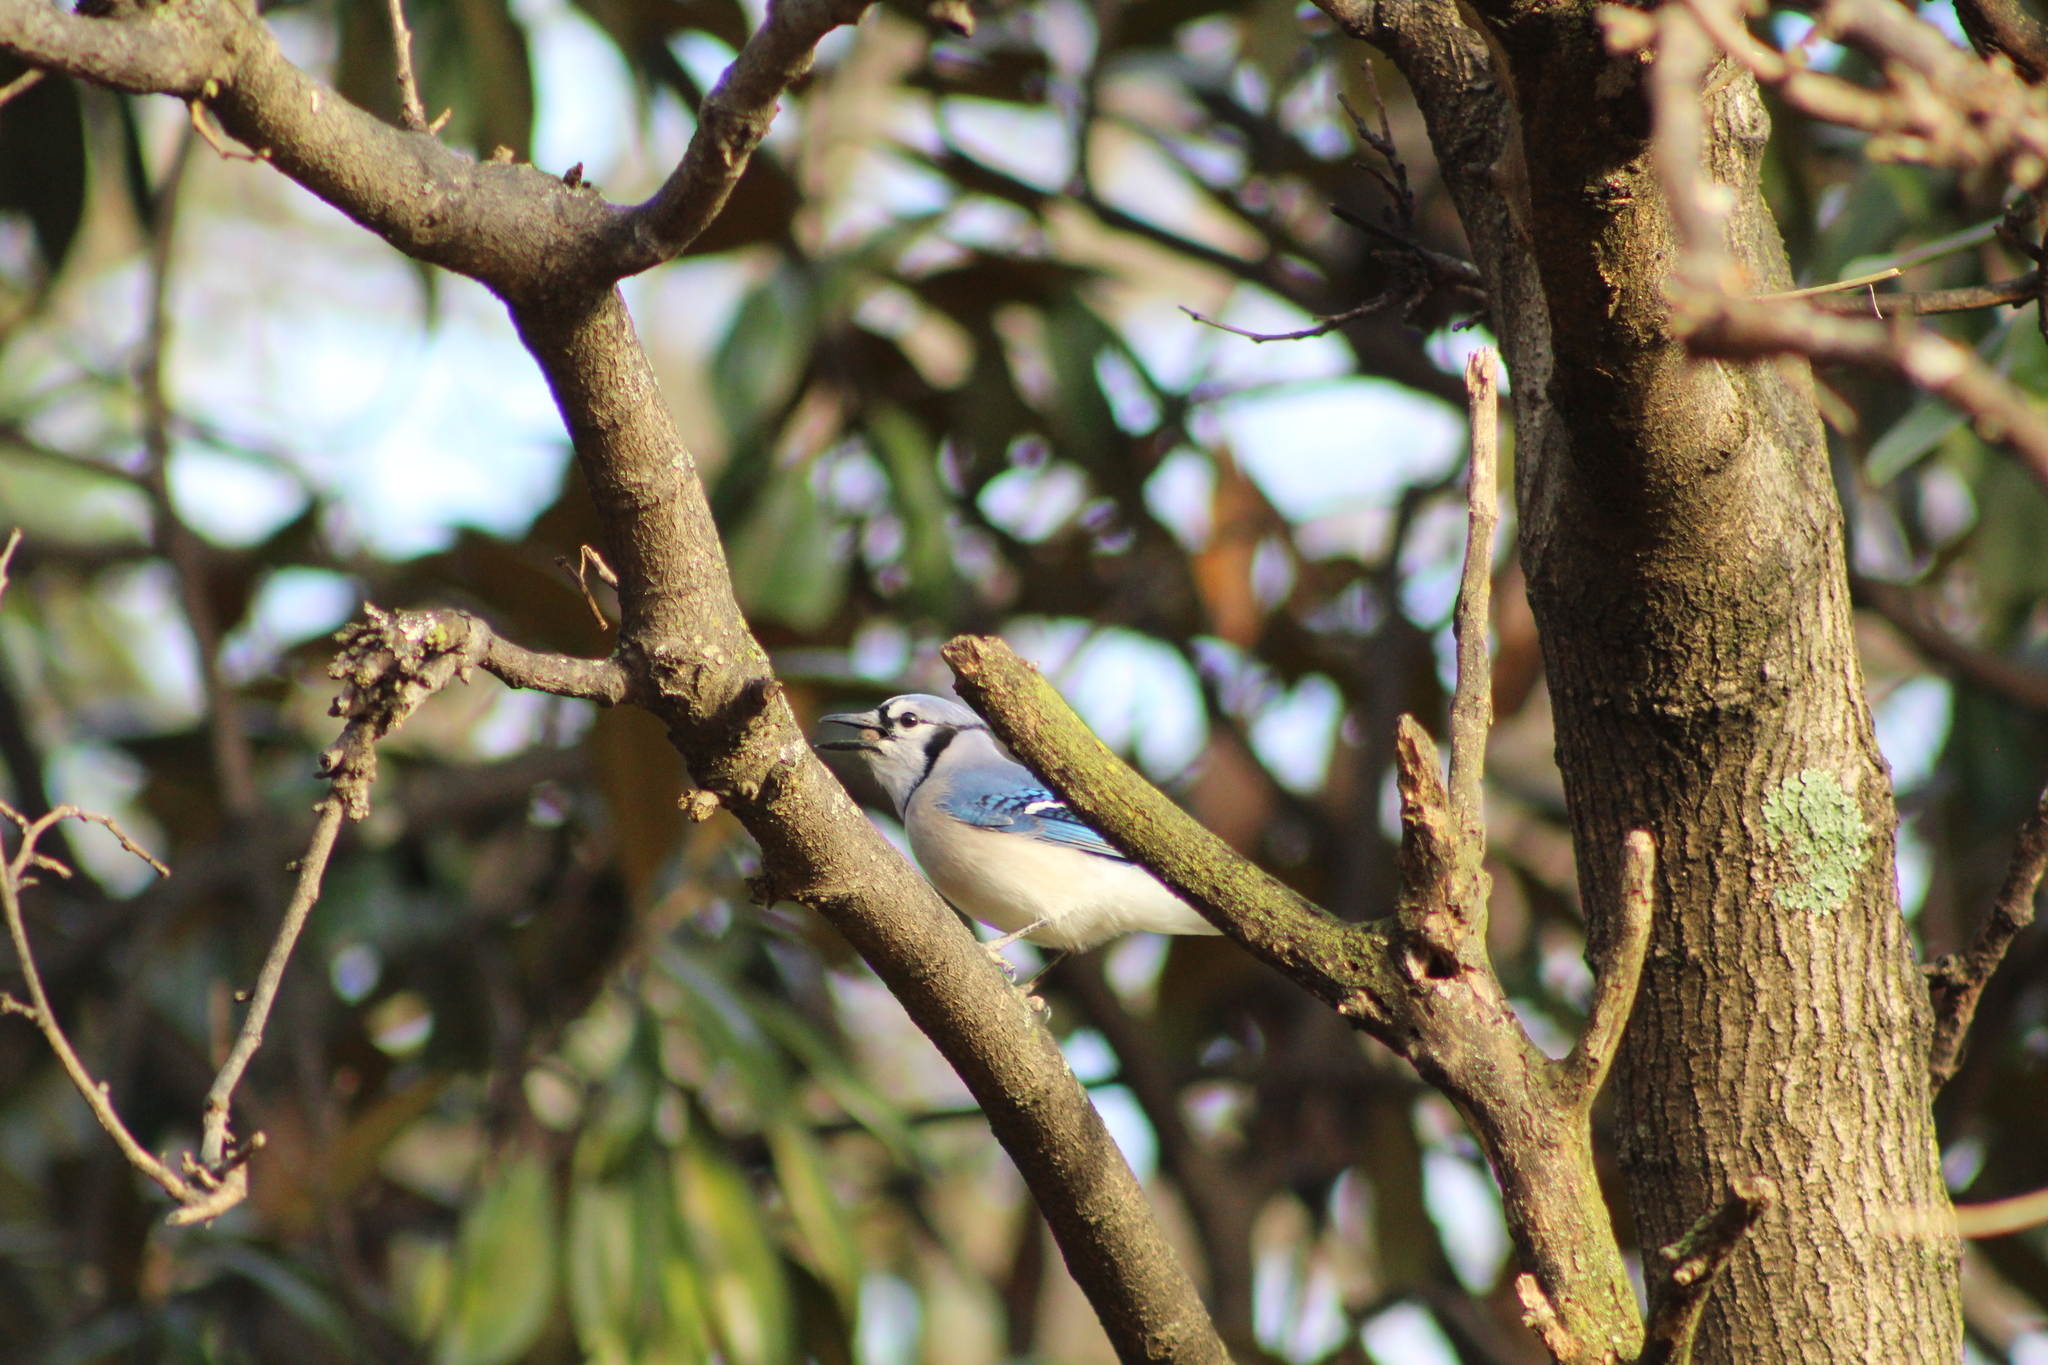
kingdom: Animalia
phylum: Chordata
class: Aves
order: Passeriformes
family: Corvidae
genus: Cyanocitta
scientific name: Cyanocitta cristata
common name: Blue jay
